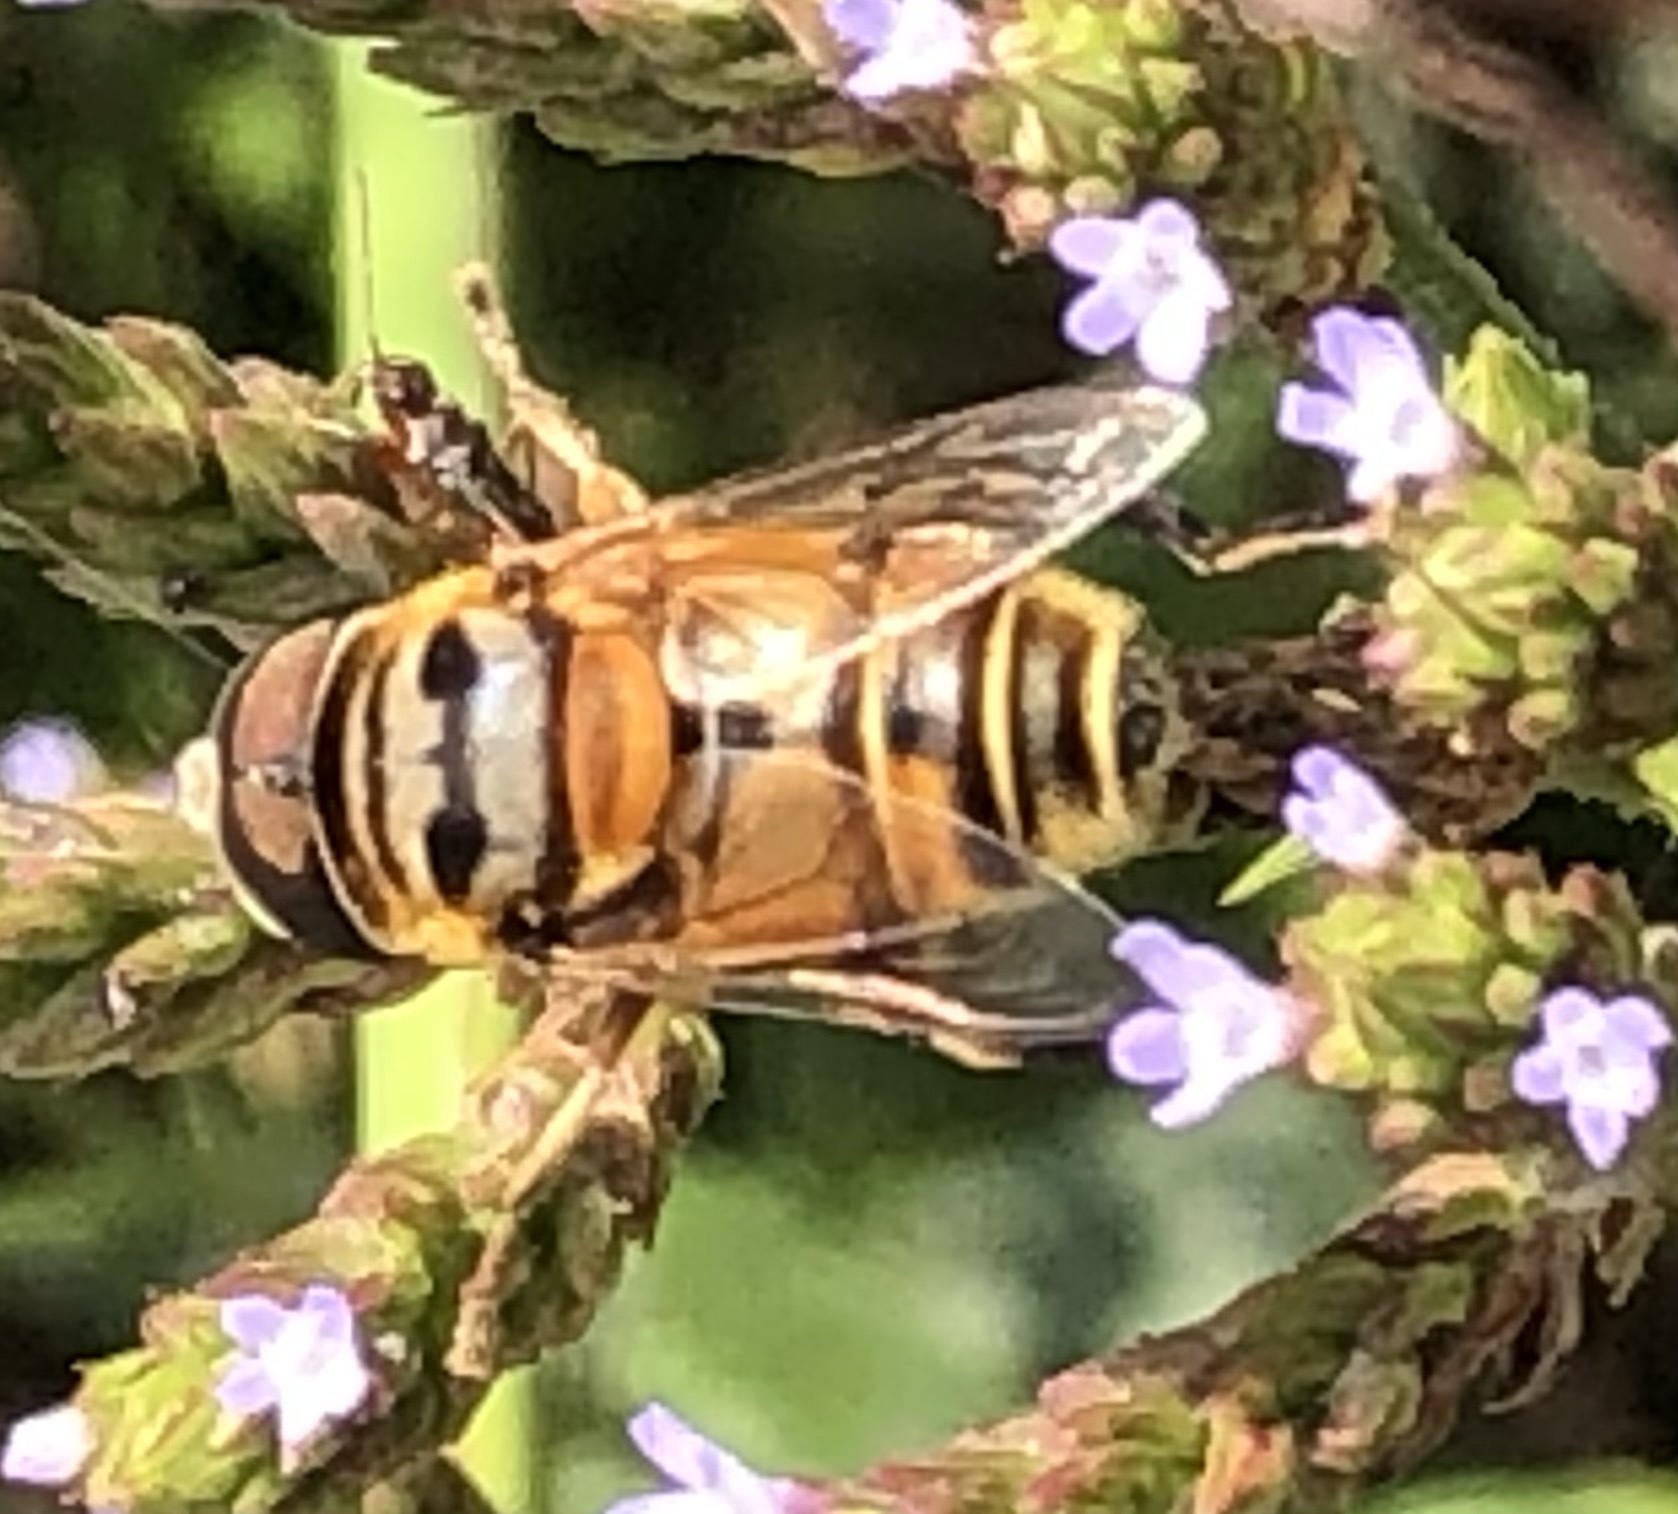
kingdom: Animalia
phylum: Arthropoda
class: Insecta
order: Diptera
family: Syrphidae
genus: Palpada
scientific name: Palpada vinetorum
